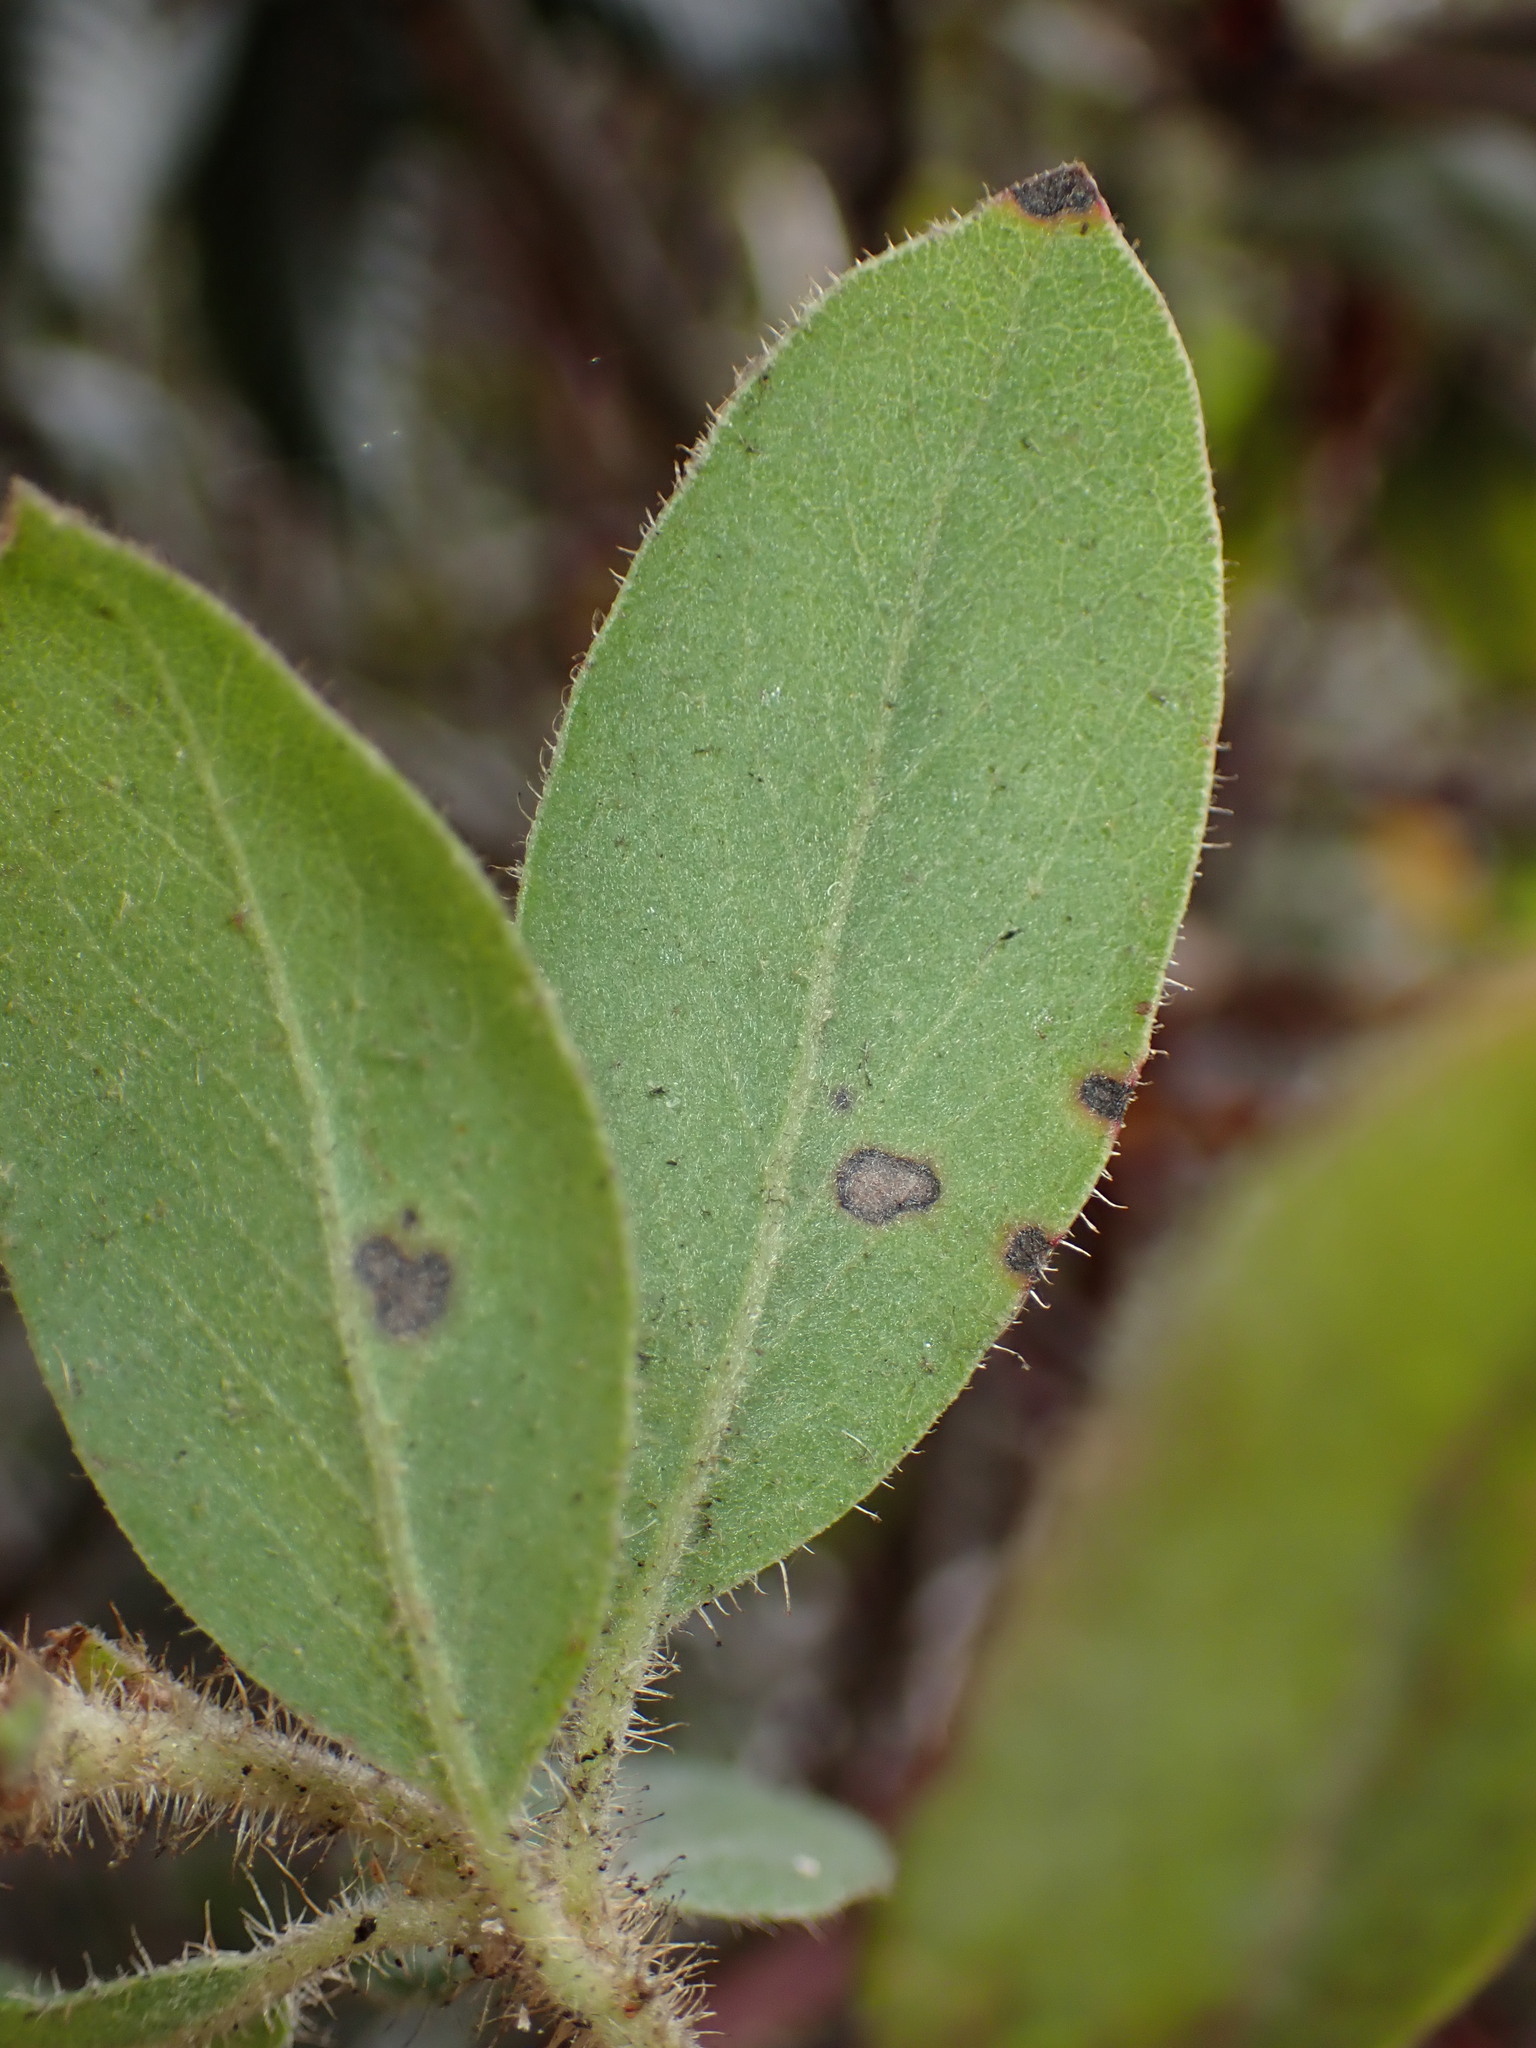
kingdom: Plantae
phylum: Tracheophyta
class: Magnoliopsida
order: Ericales
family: Ericaceae
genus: Arctostaphylos
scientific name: Arctostaphylos columbiana
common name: Bristly bearberry
